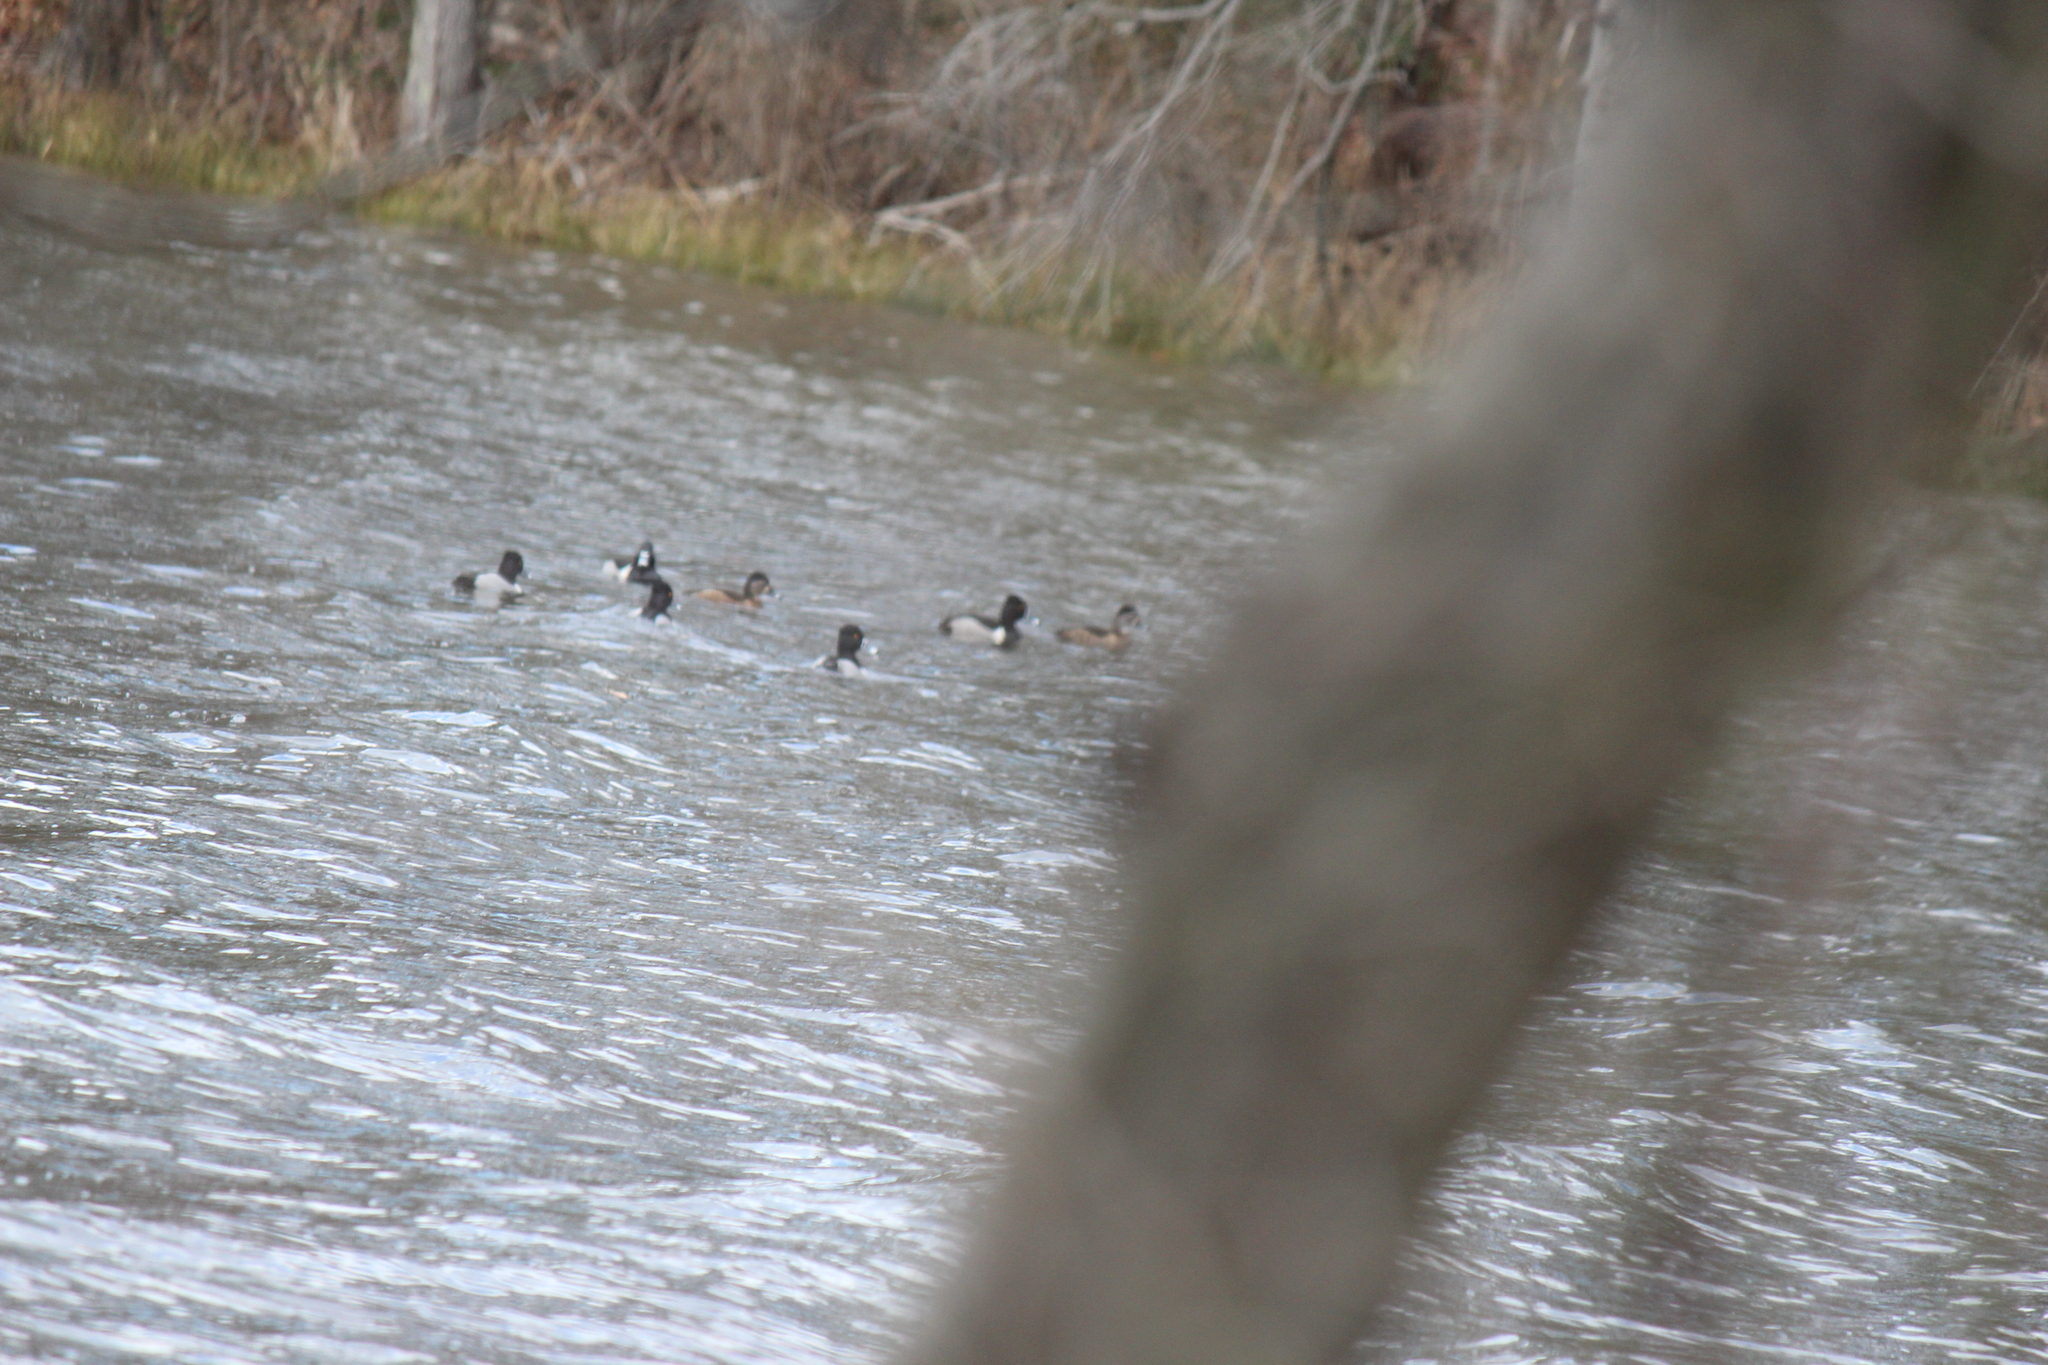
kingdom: Animalia
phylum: Chordata
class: Aves
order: Anseriformes
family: Anatidae
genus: Aythya
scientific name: Aythya collaris
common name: Ring-necked duck
